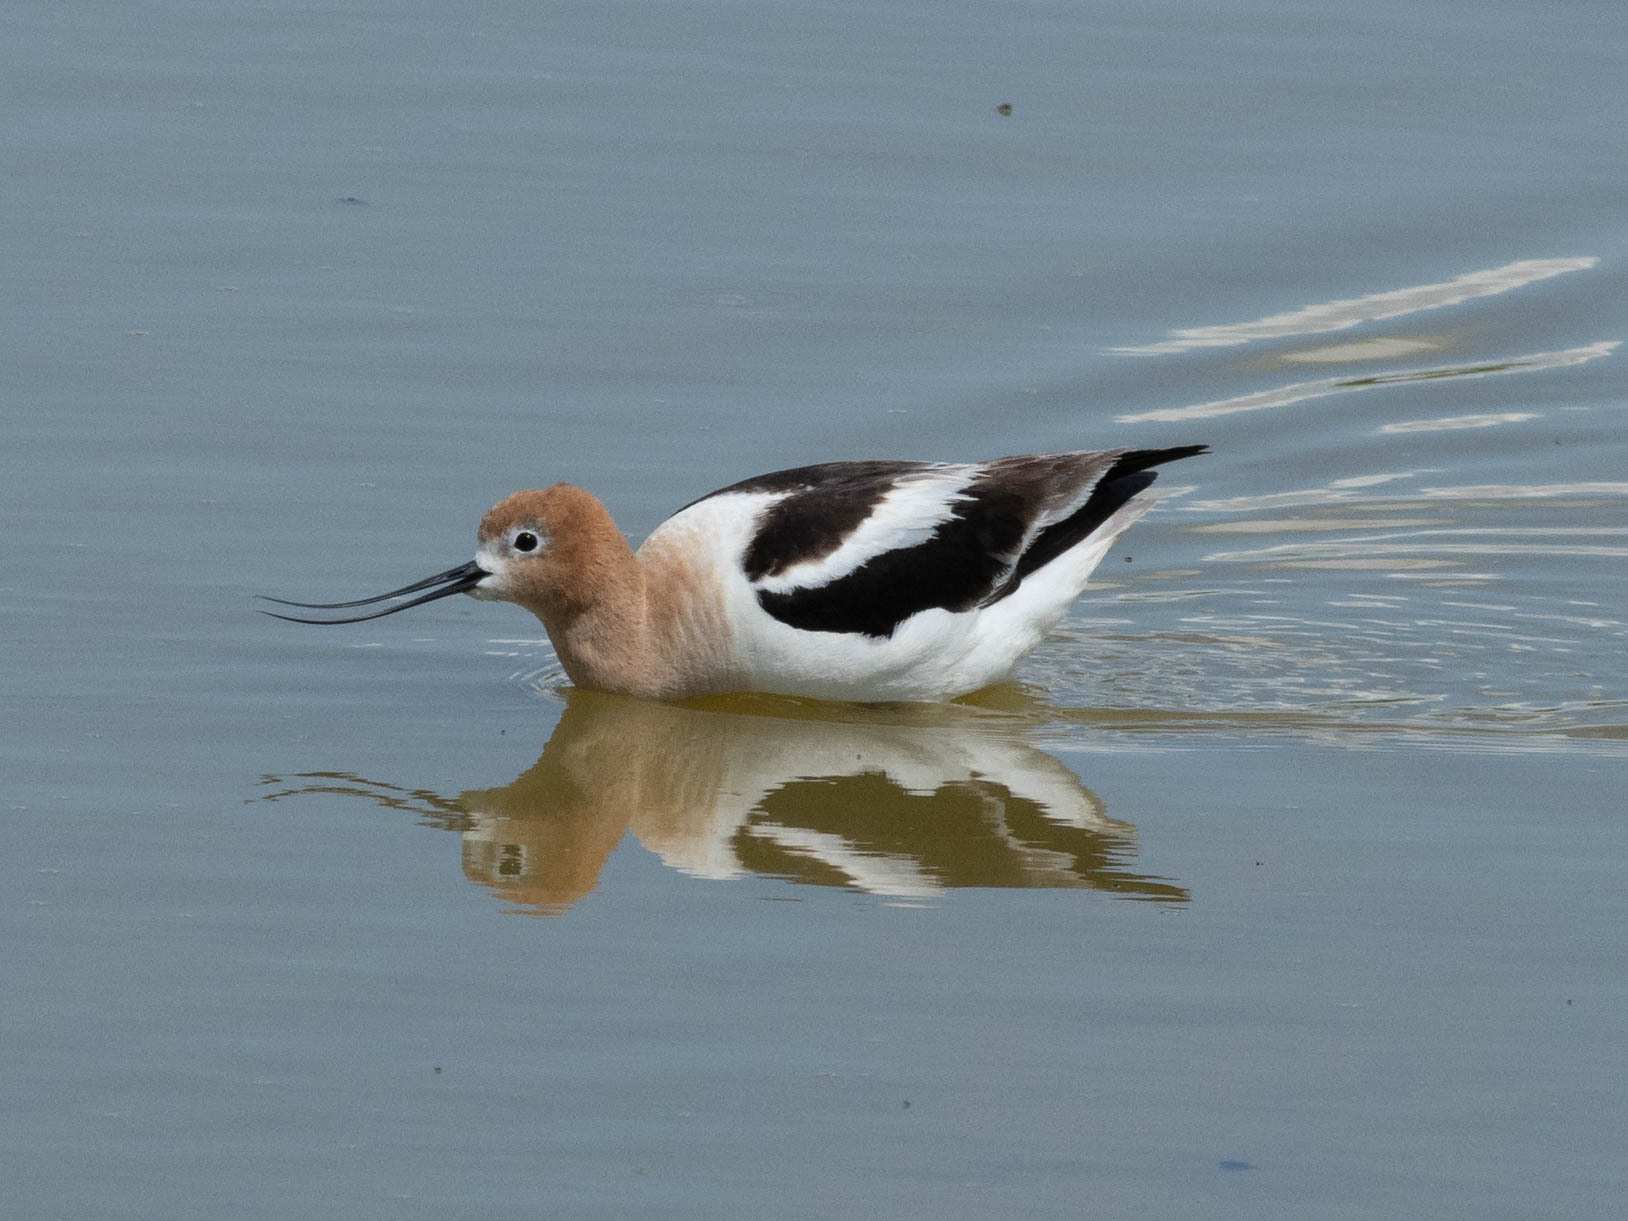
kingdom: Animalia
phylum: Chordata
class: Aves
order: Charadriiformes
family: Recurvirostridae
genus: Recurvirostra
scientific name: Recurvirostra americana
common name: American avocet
